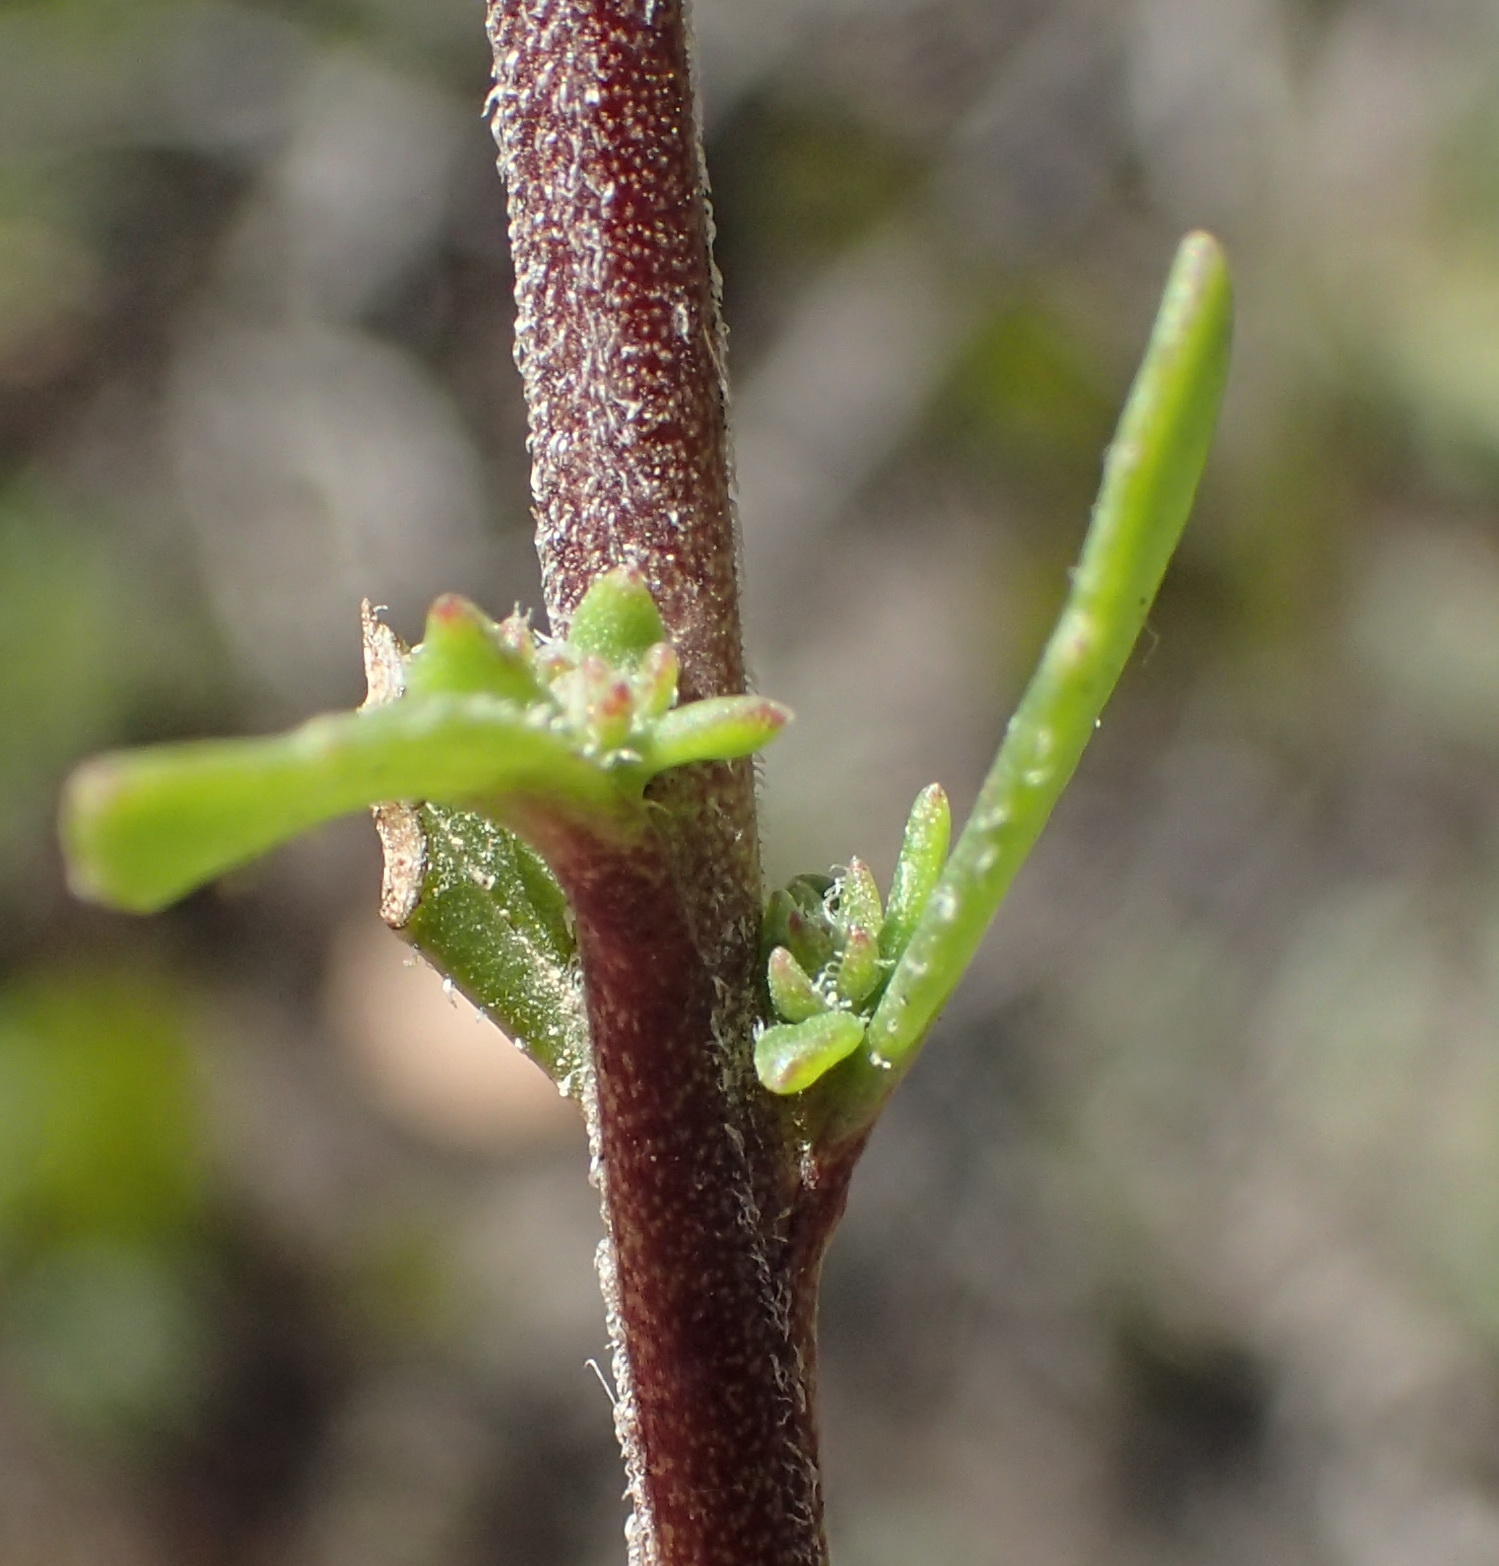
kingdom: Plantae
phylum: Tracheophyta
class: Magnoliopsida
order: Lamiales
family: Scrophulariaceae
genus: Pseudoselago
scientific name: Pseudoselago bella
